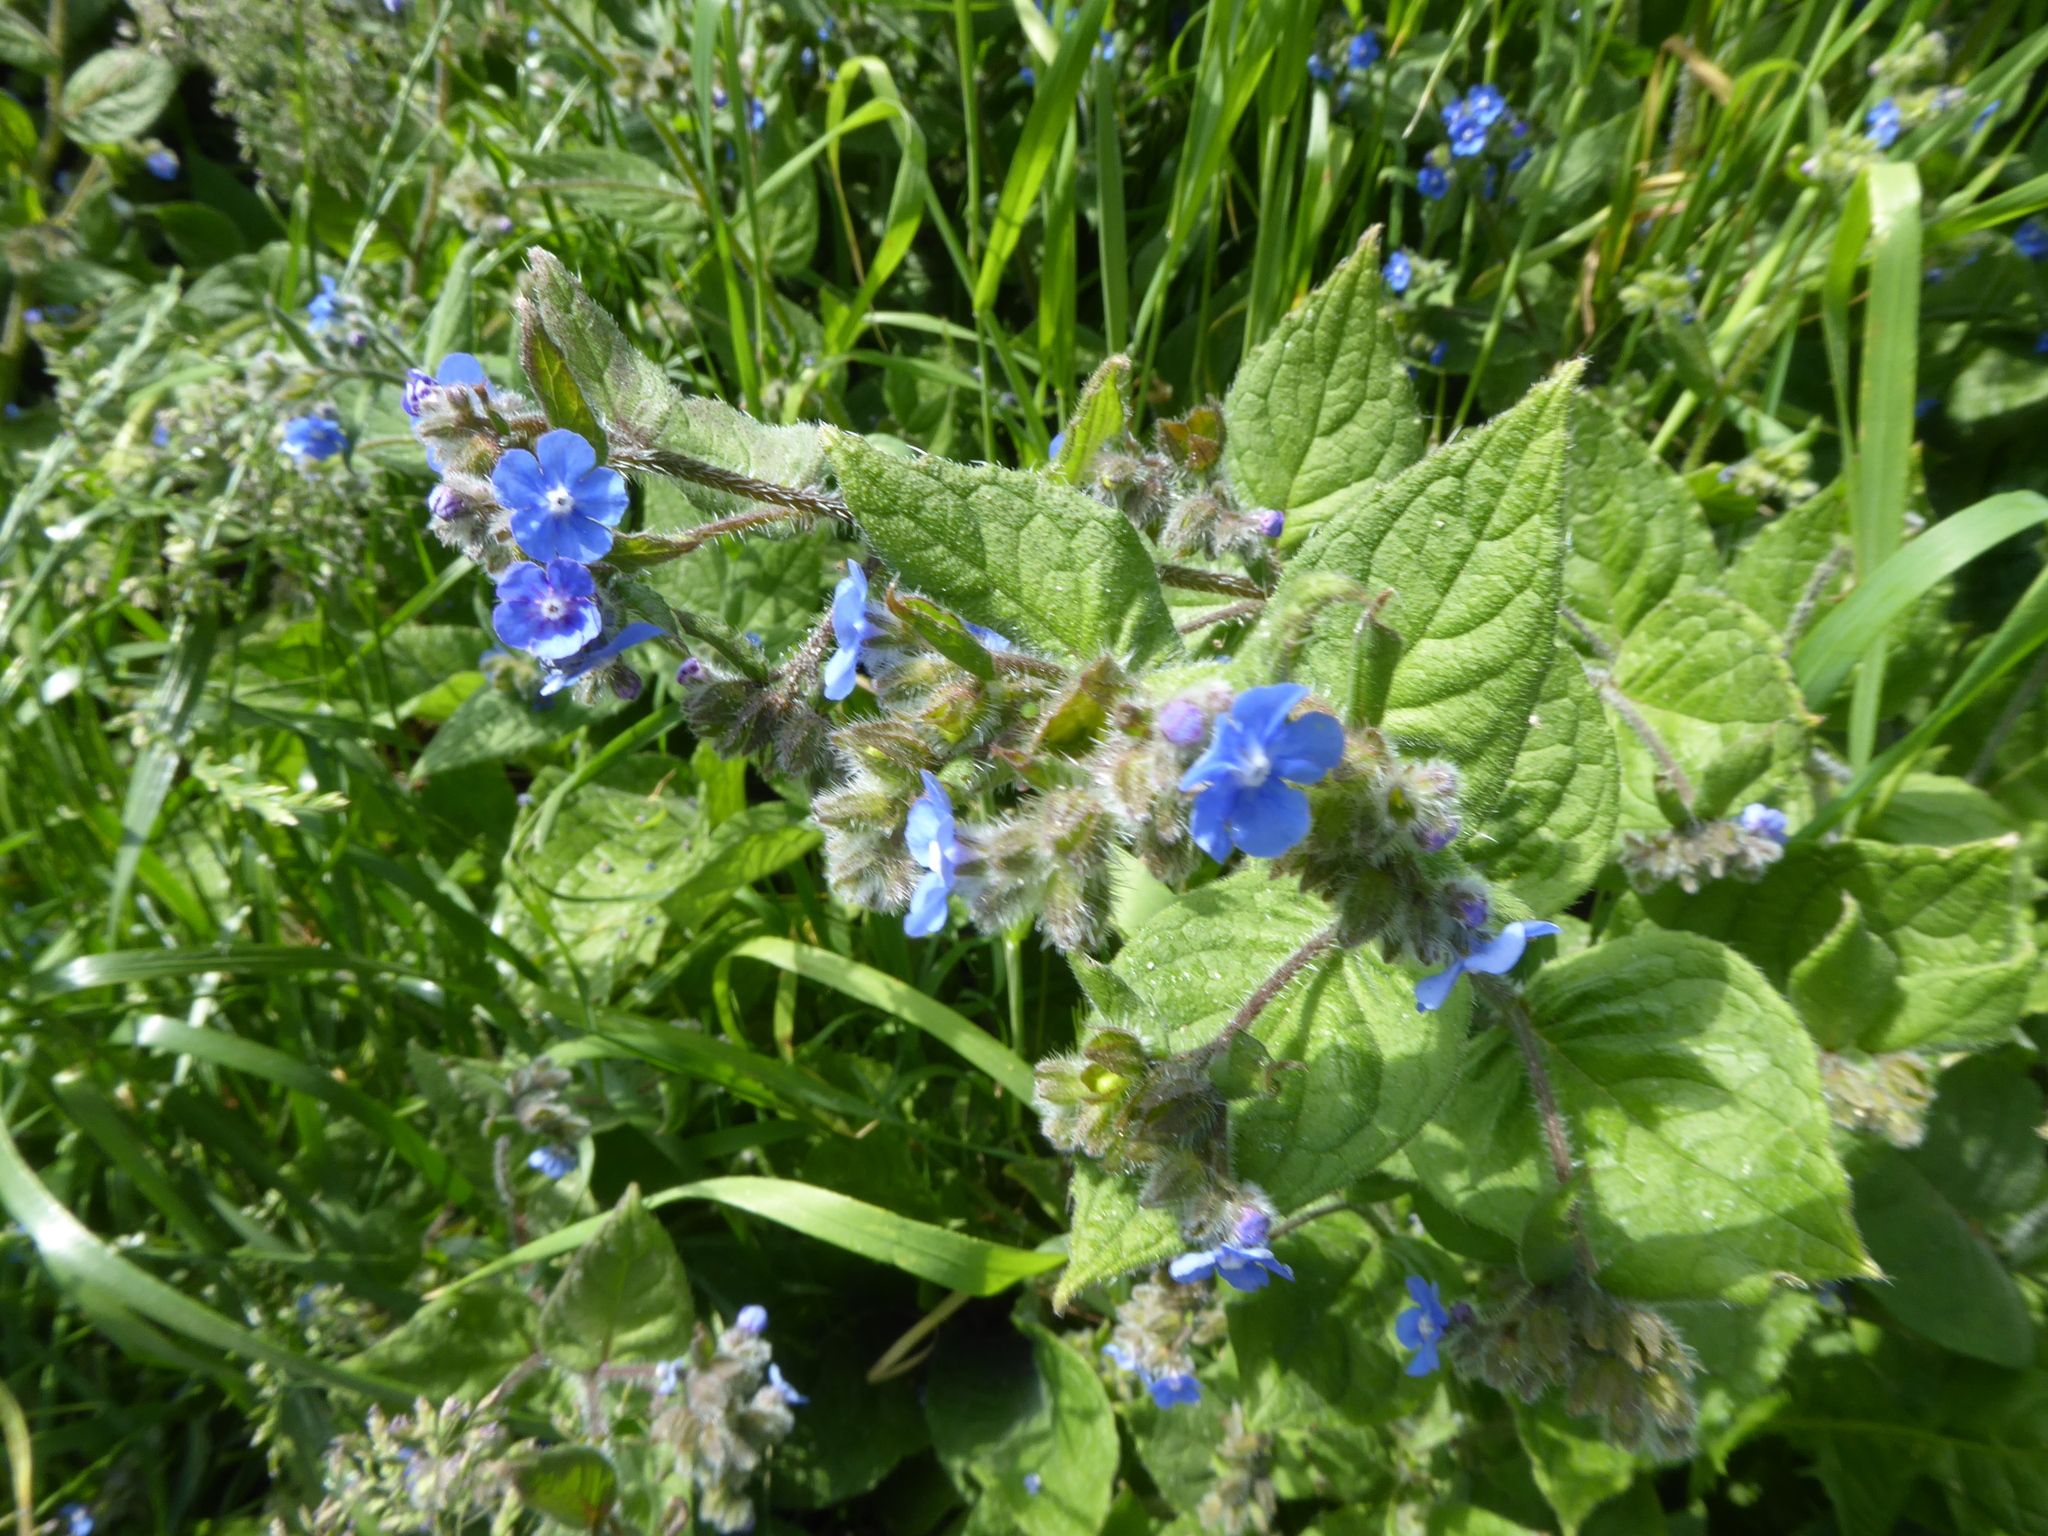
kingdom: Plantae
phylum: Tracheophyta
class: Magnoliopsida
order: Boraginales
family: Boraginaceae
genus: Pentaglottis
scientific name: Pentaglottis sempervirens
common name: Green alkanet
